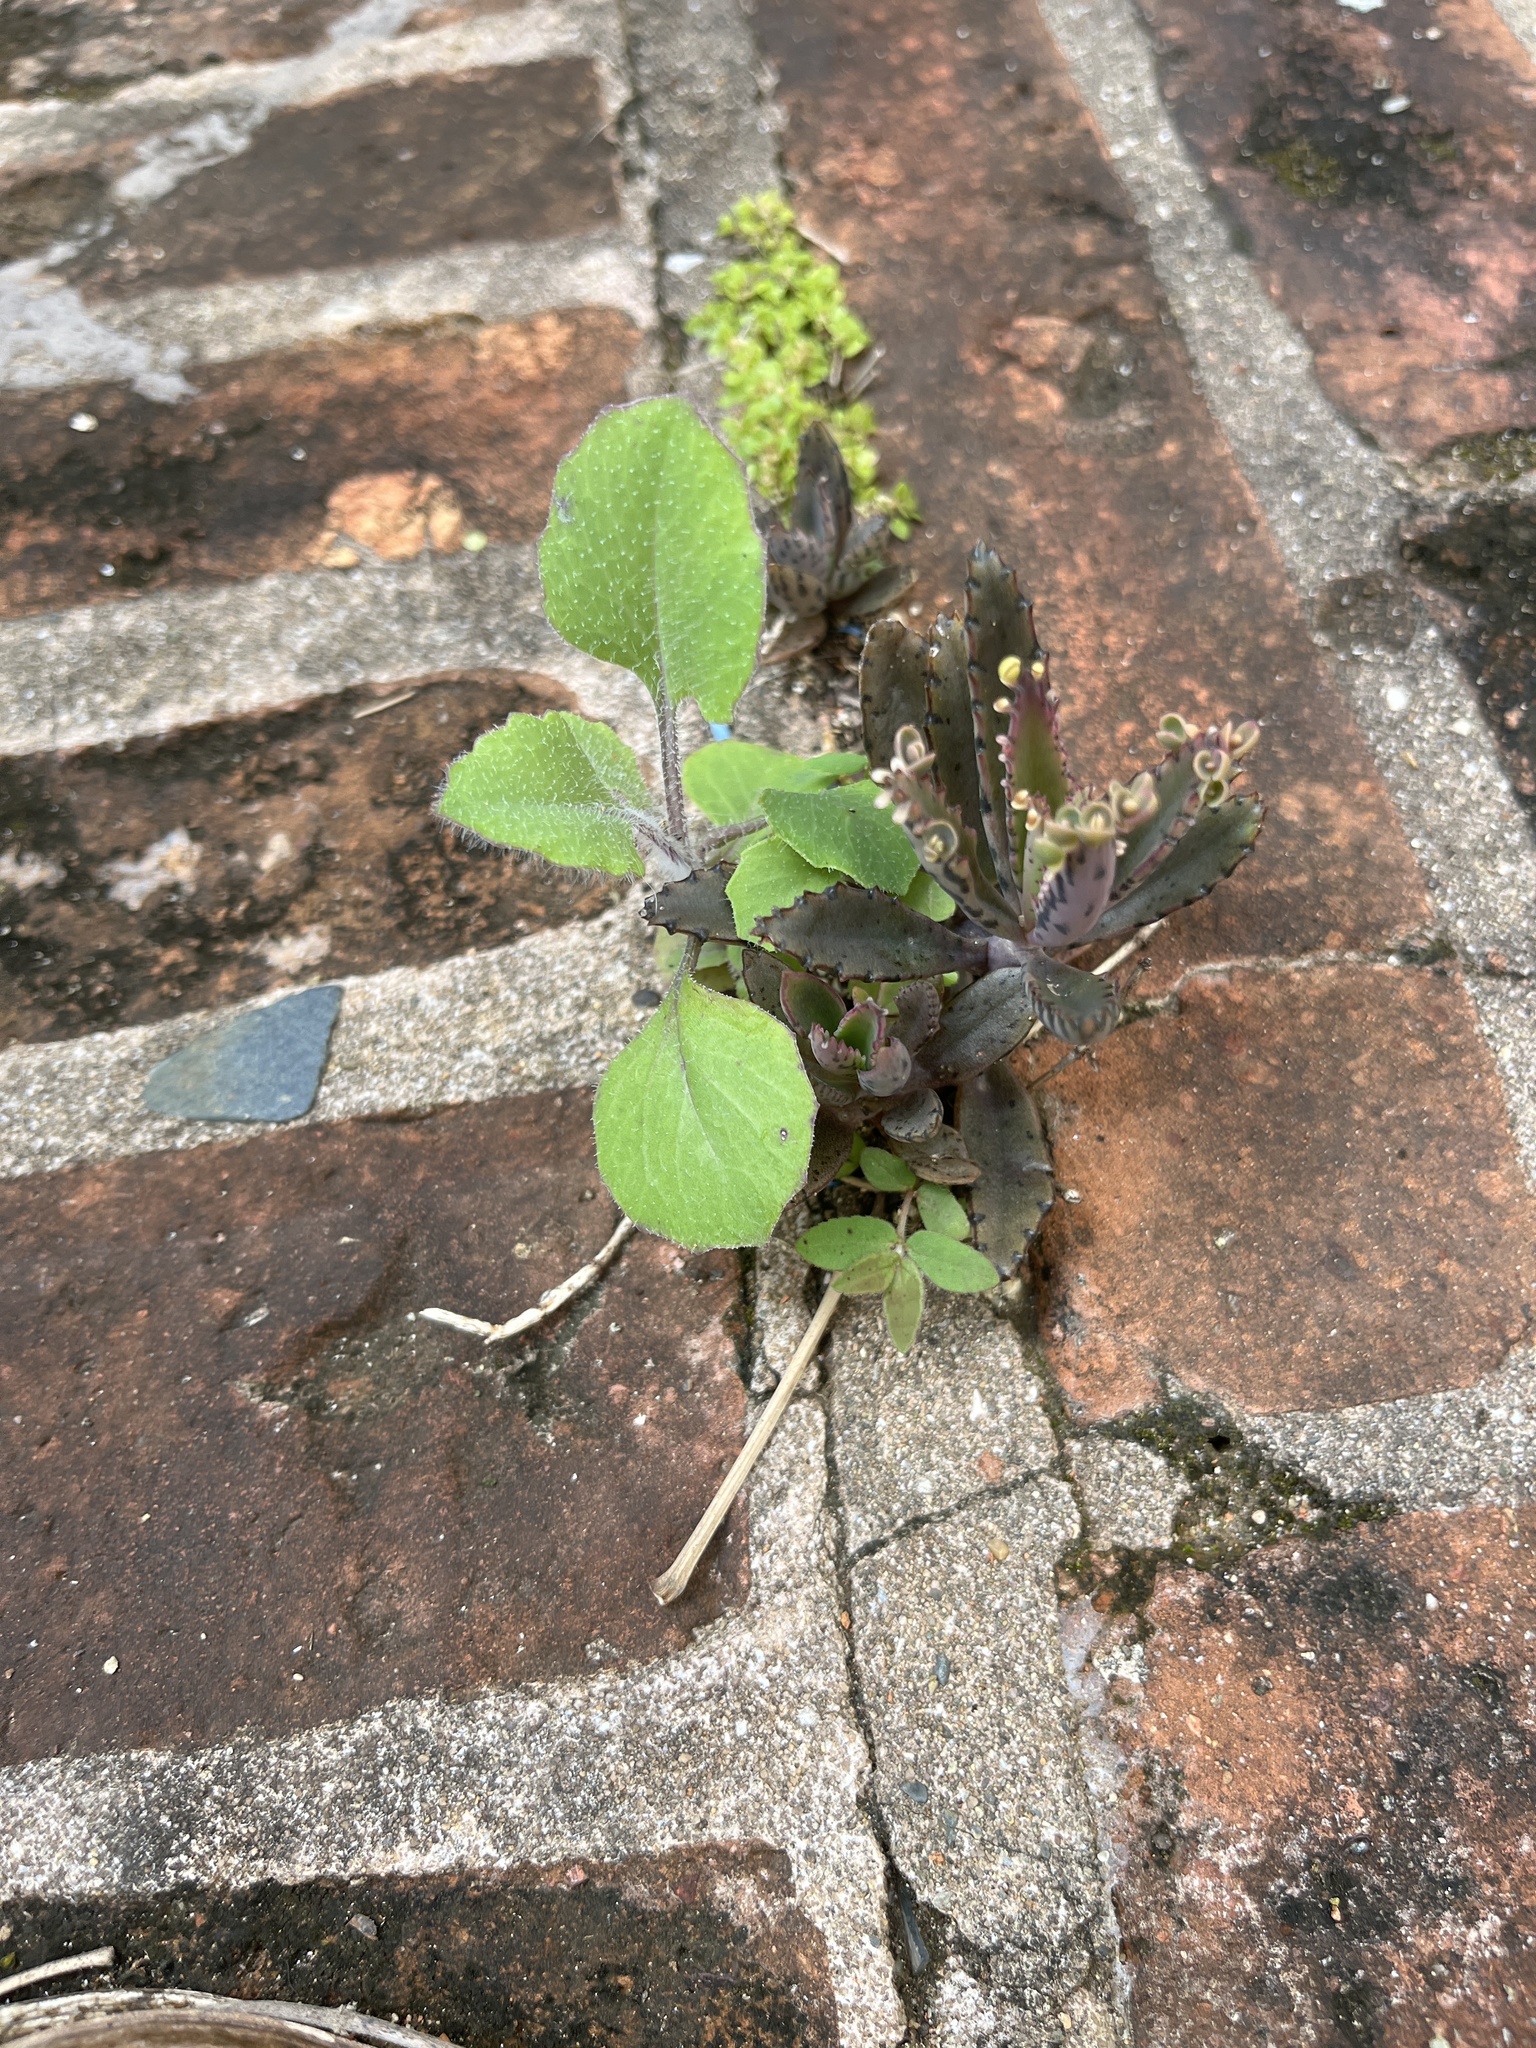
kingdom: Plantae
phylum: Tracheophyta
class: Magnoliopsida
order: Saxifragales
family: Crassulaceae
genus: Kalanchoe
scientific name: Kalanchoe houghtonii
